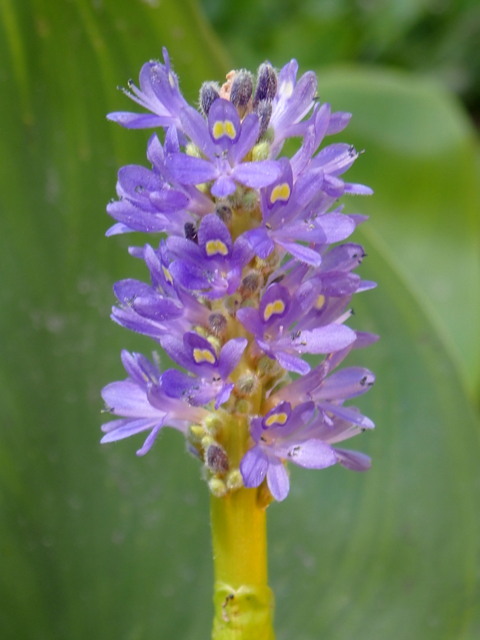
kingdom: Plantae
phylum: Tracheophyta
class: Liliopsida
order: Commelinales
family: Pontederiaceae
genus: Pontederia
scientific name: Pontederia cordata
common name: Pickerelweed
